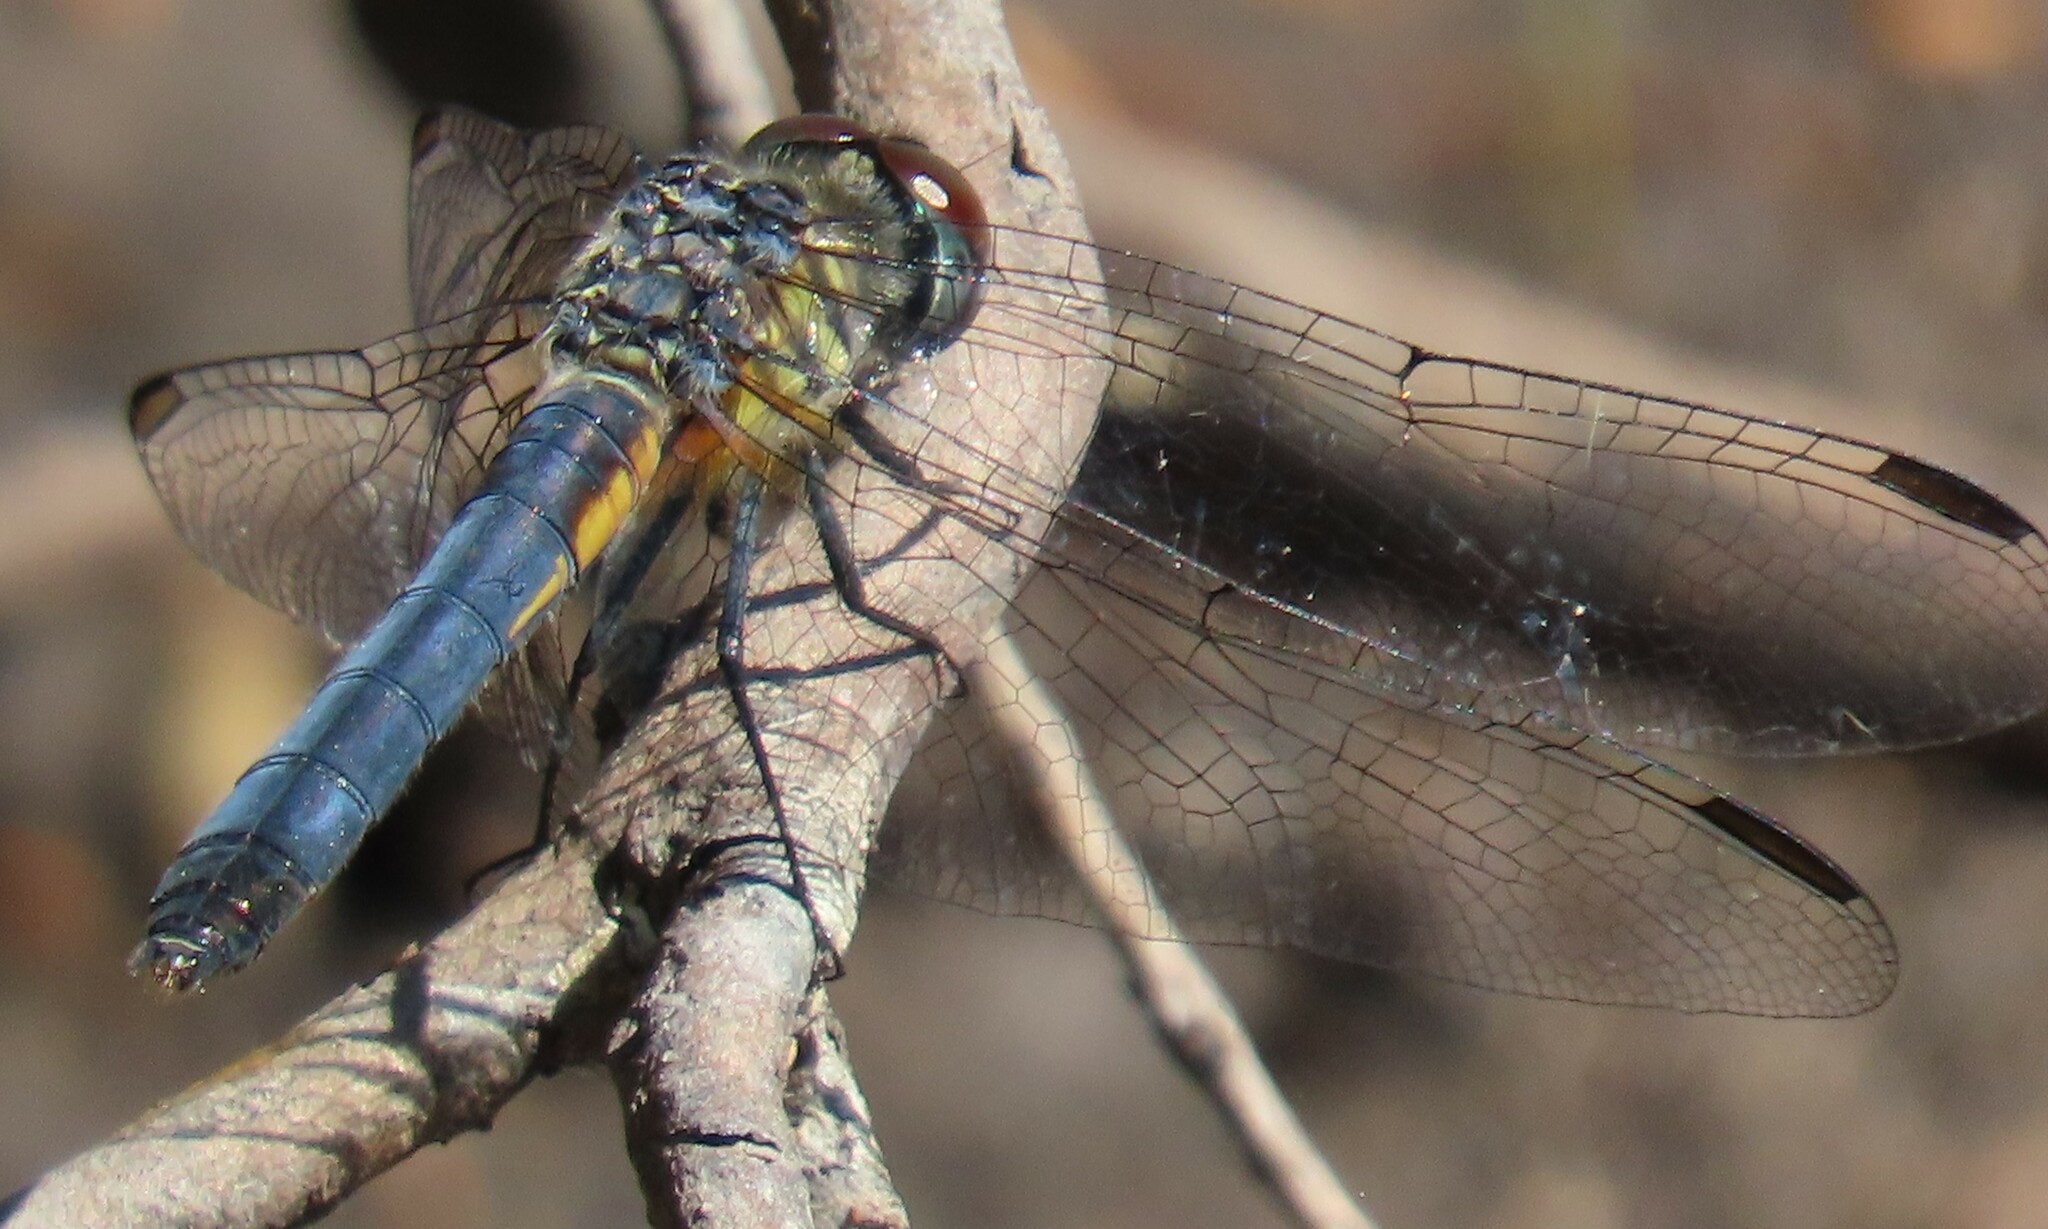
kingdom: Animalia
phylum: Arthropoda
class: Insecta
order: Odonata
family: Libellulidae
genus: Pachydiplax
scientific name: Pachydiplax longipennis
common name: Blue dasher
